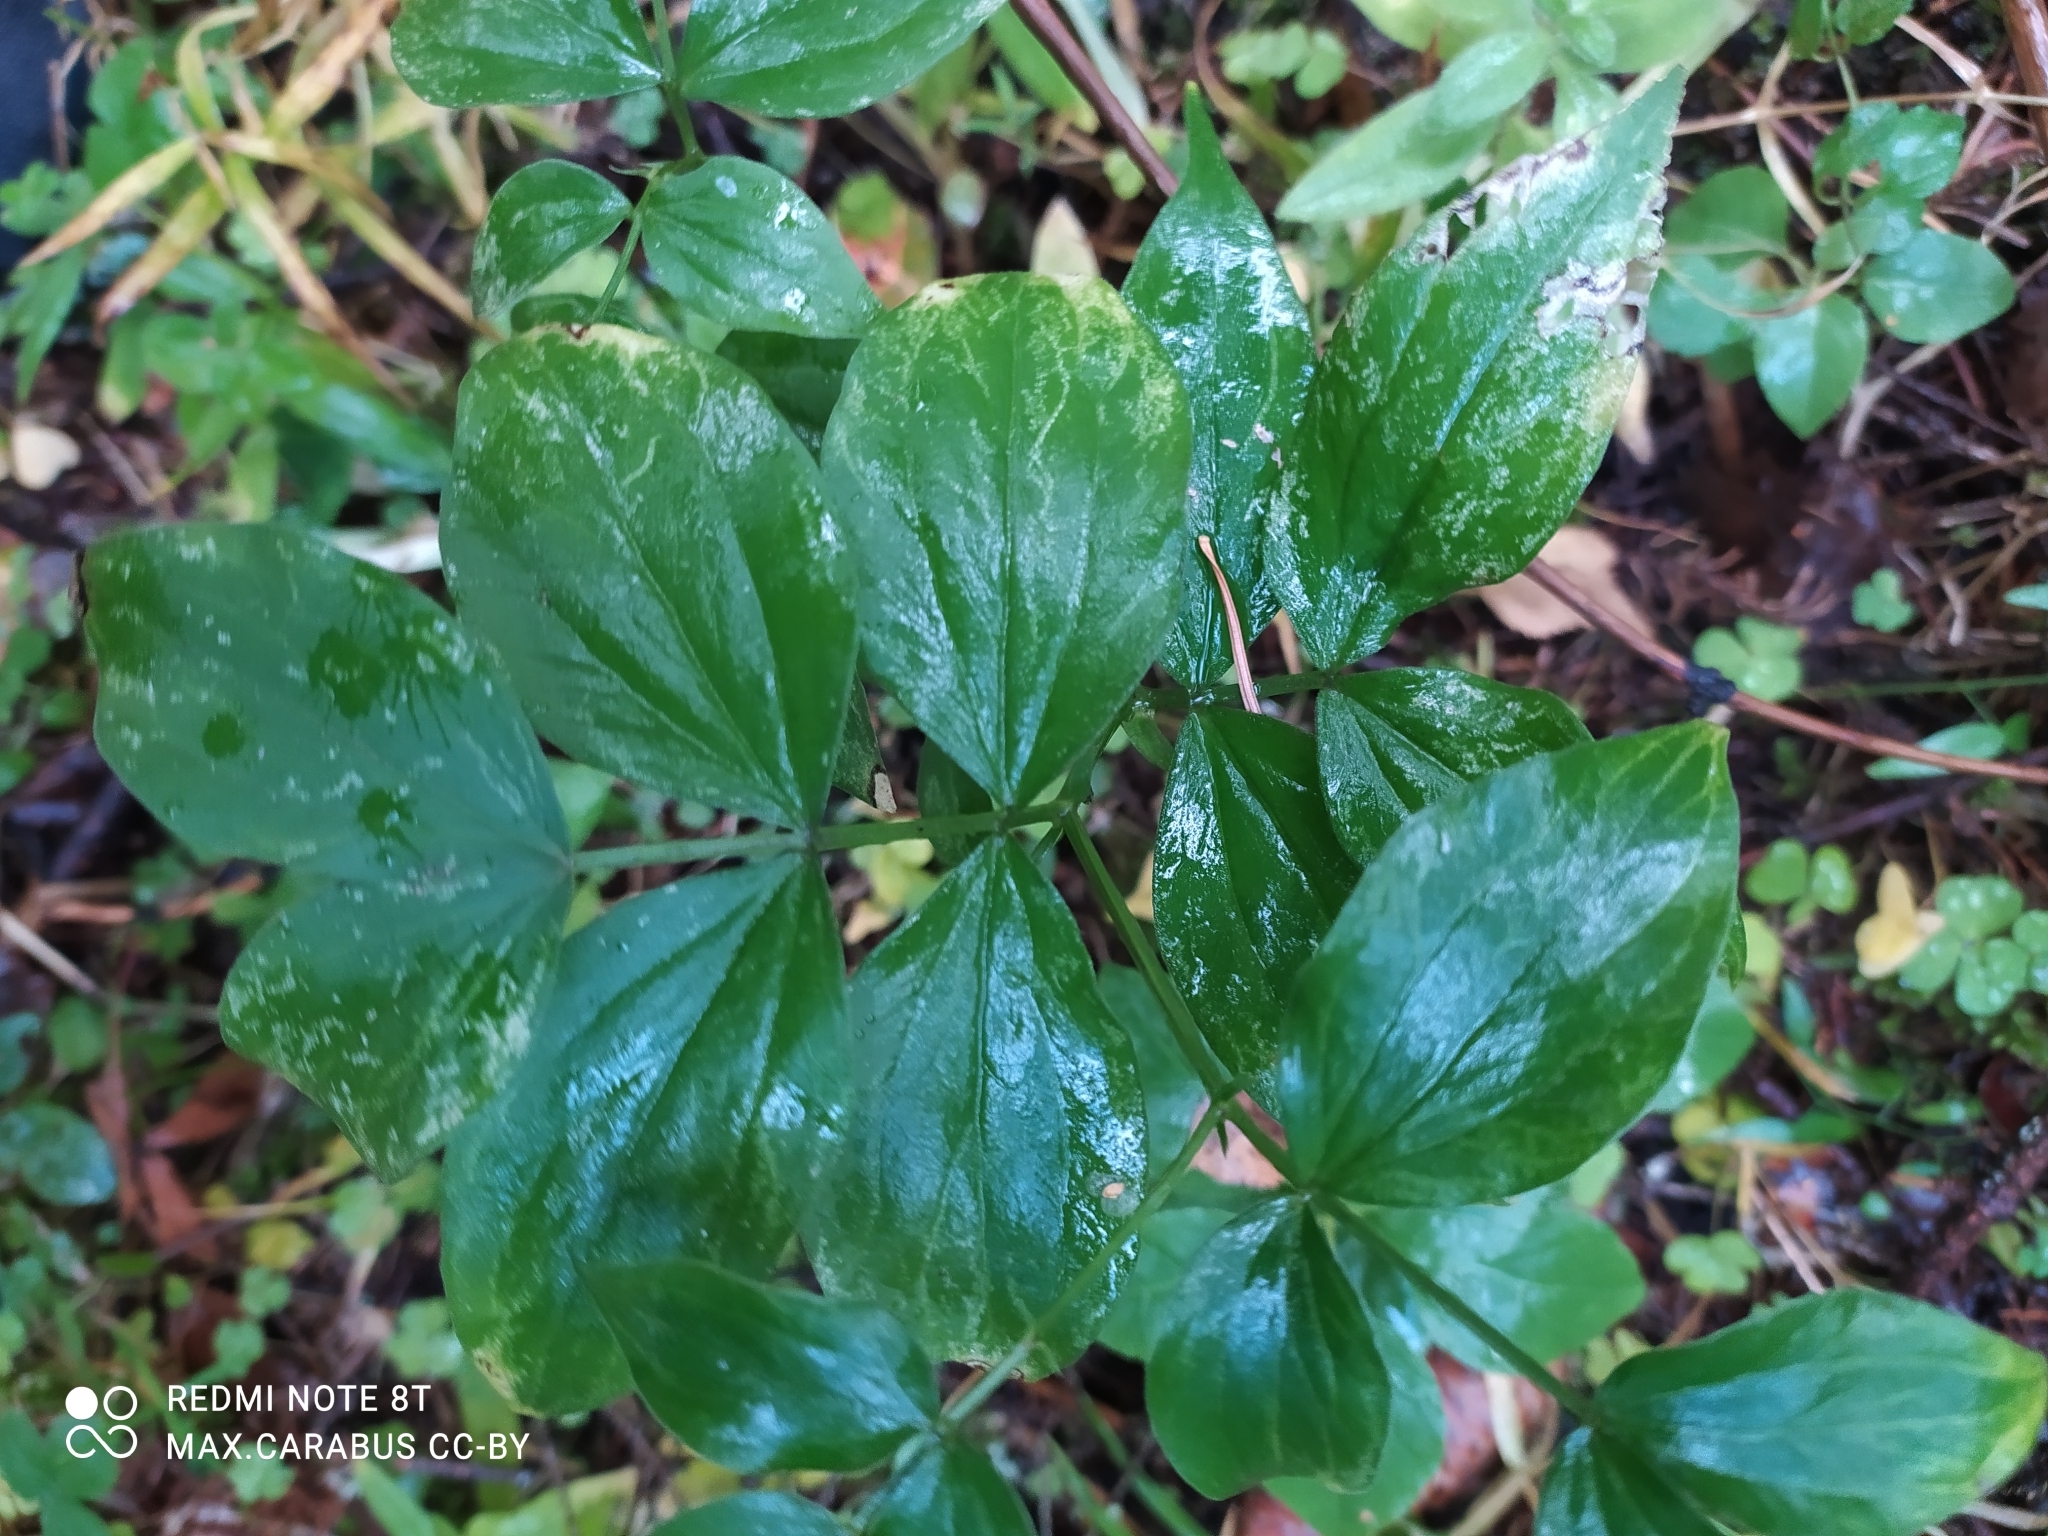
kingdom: Plantae
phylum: Tracheophyta
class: Magnoliopsida
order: Fabales
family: Fabaceae
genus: Lathyrus
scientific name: Lathyrus vernus
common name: Spring pea
